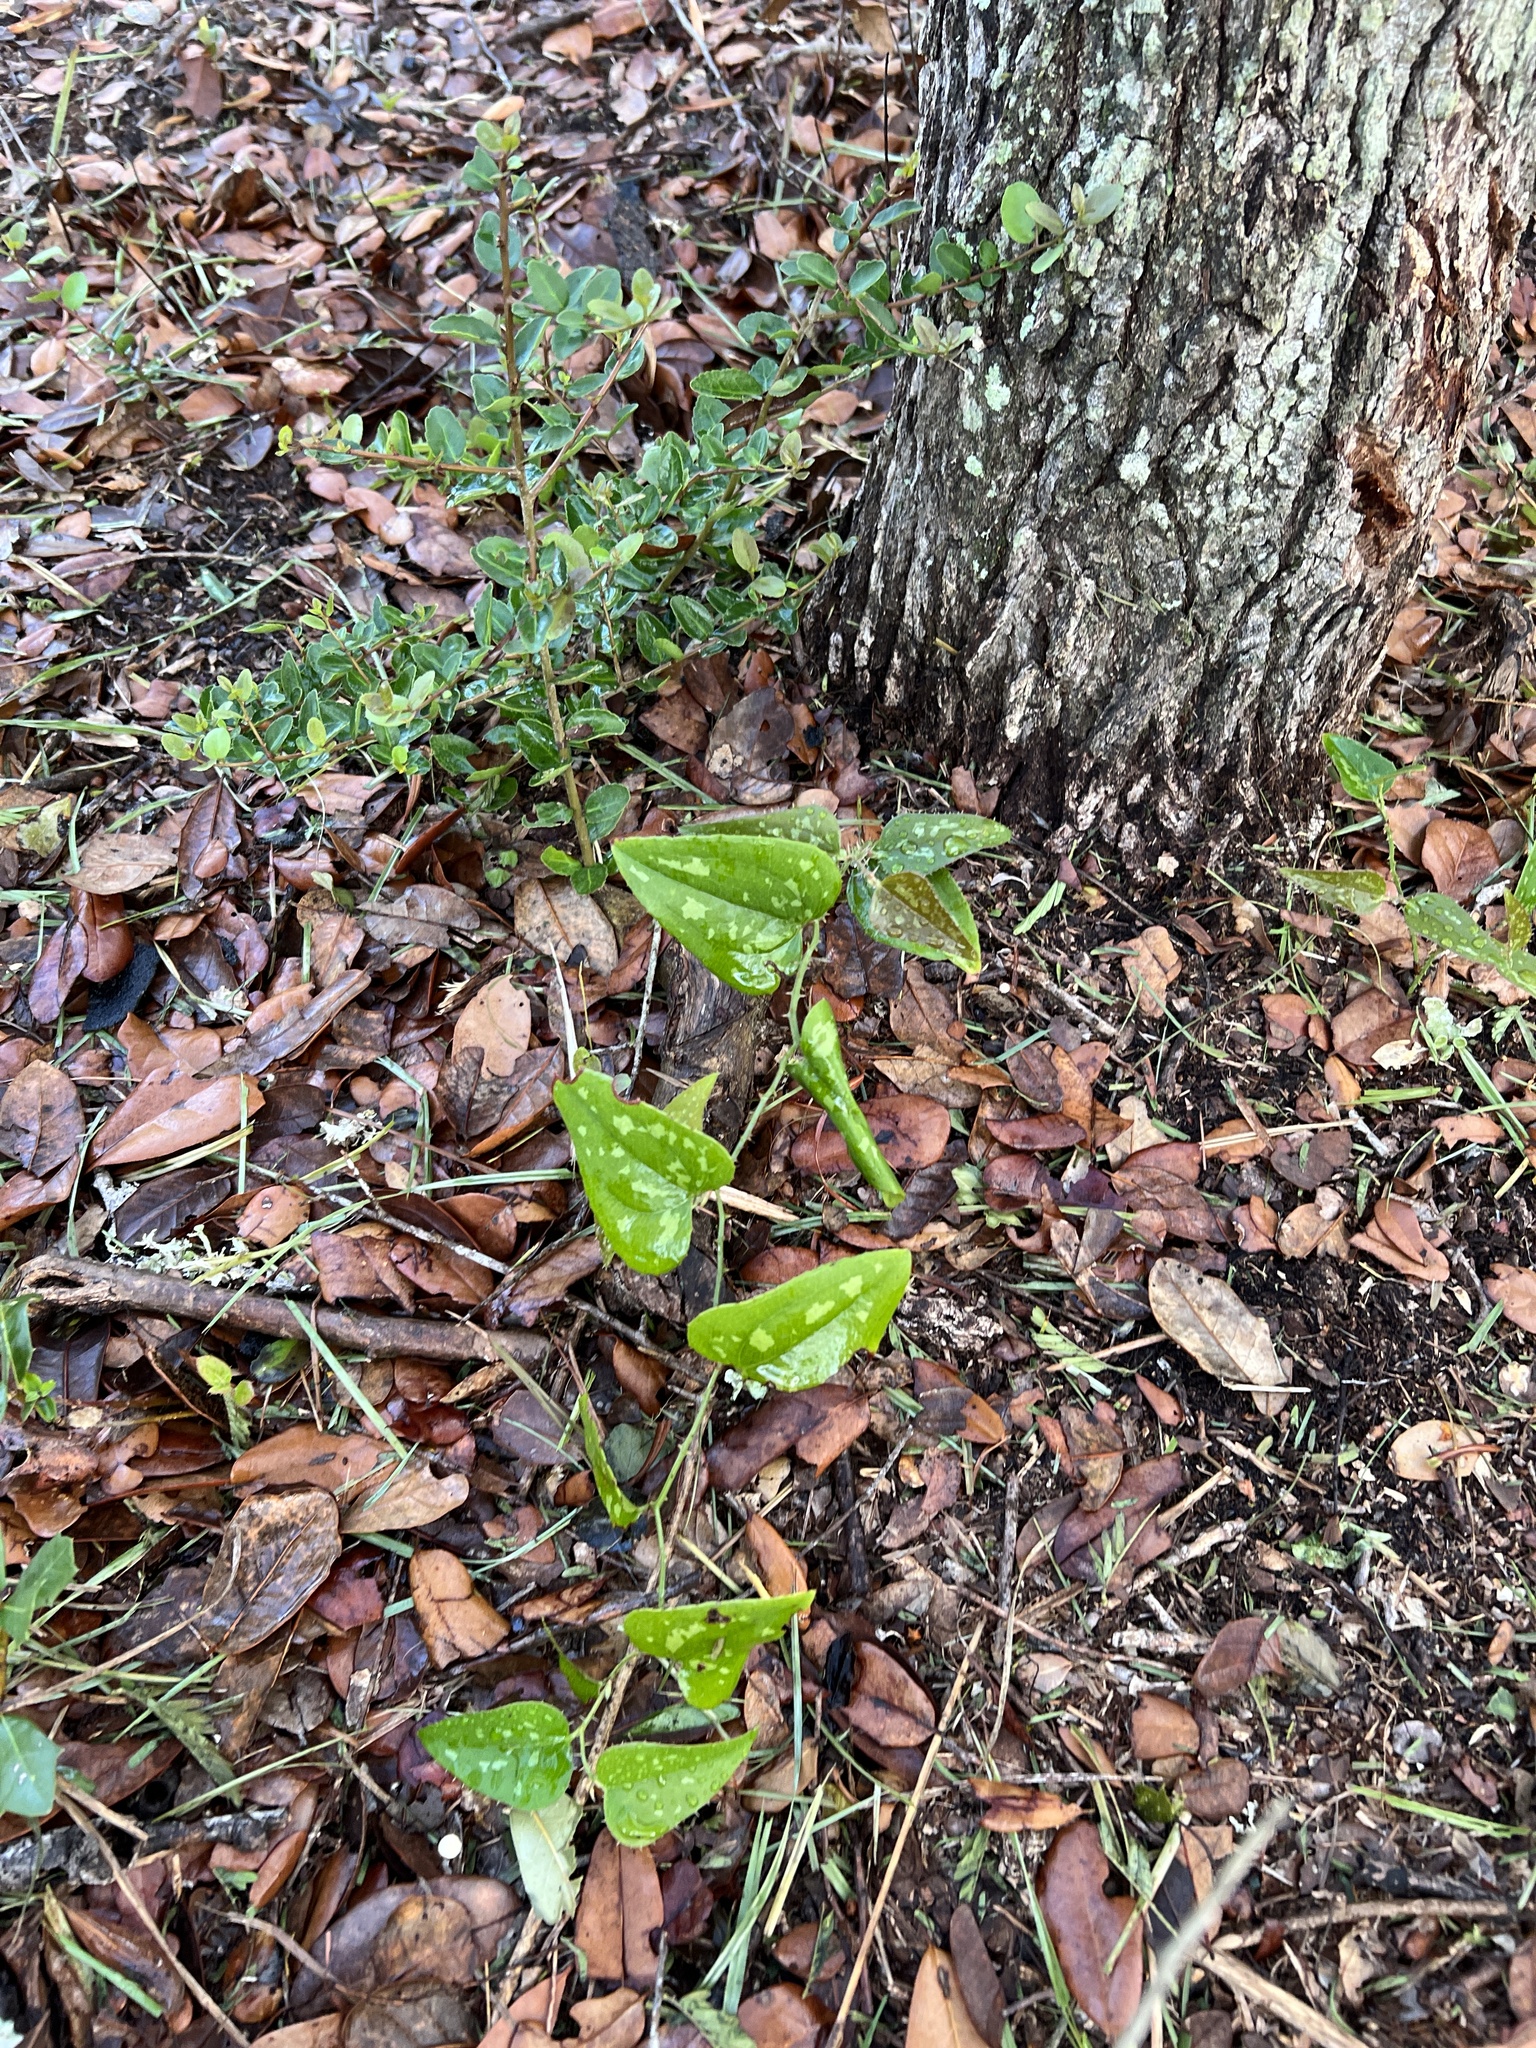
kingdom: Plantae
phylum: Tracheophyta
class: Liliopsida
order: Liliales
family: Smilacaceae
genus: Smilax
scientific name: Smilax bona-nox
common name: Catbrier
